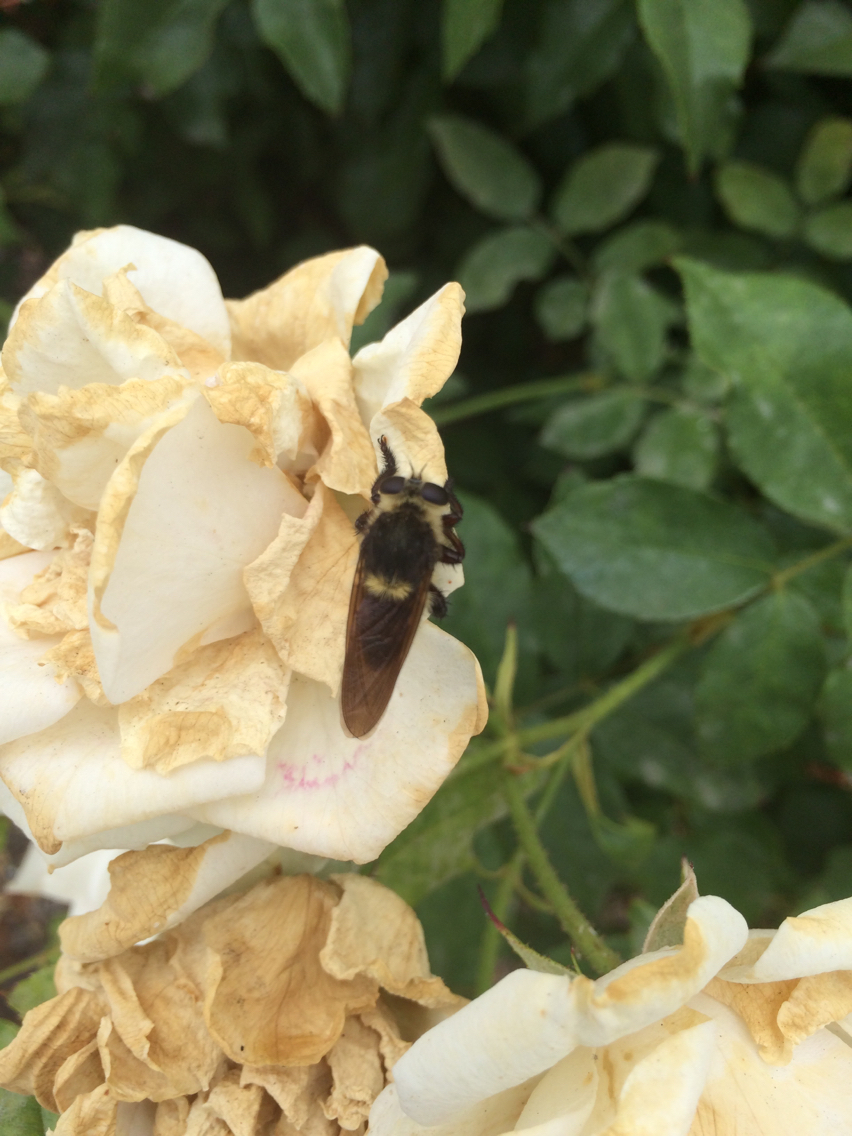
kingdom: Animalia
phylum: Arthropoda
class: Insecta
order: Diptera
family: Asilidae
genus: Mallophora
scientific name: Mallophora fautrix
